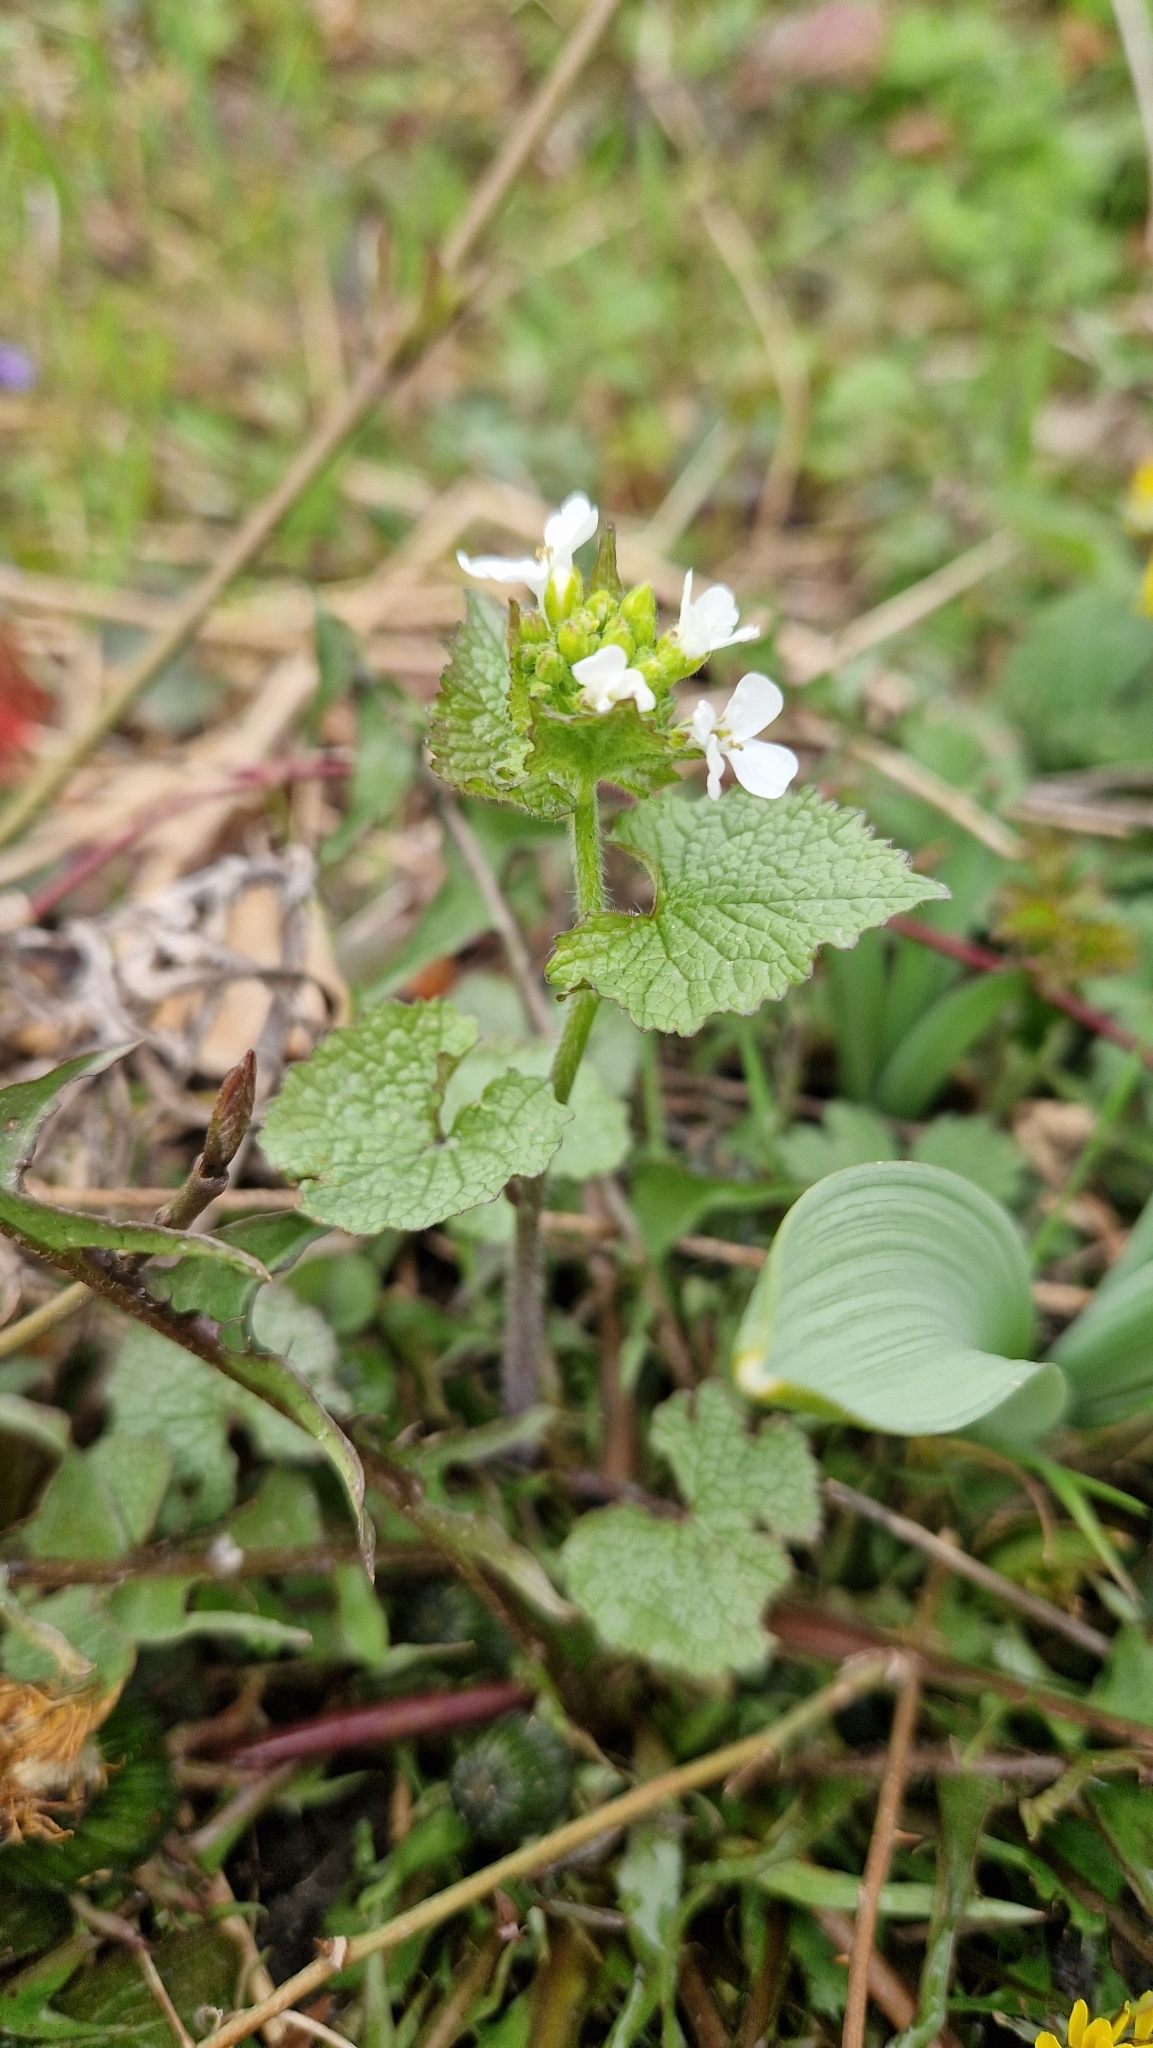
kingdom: Plantae
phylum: Tracheophyta
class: Magnoliopsida
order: Brassicales
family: Brassicaceae
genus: Alliaria
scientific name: Alliaria petiolata
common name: Garlic mustard
